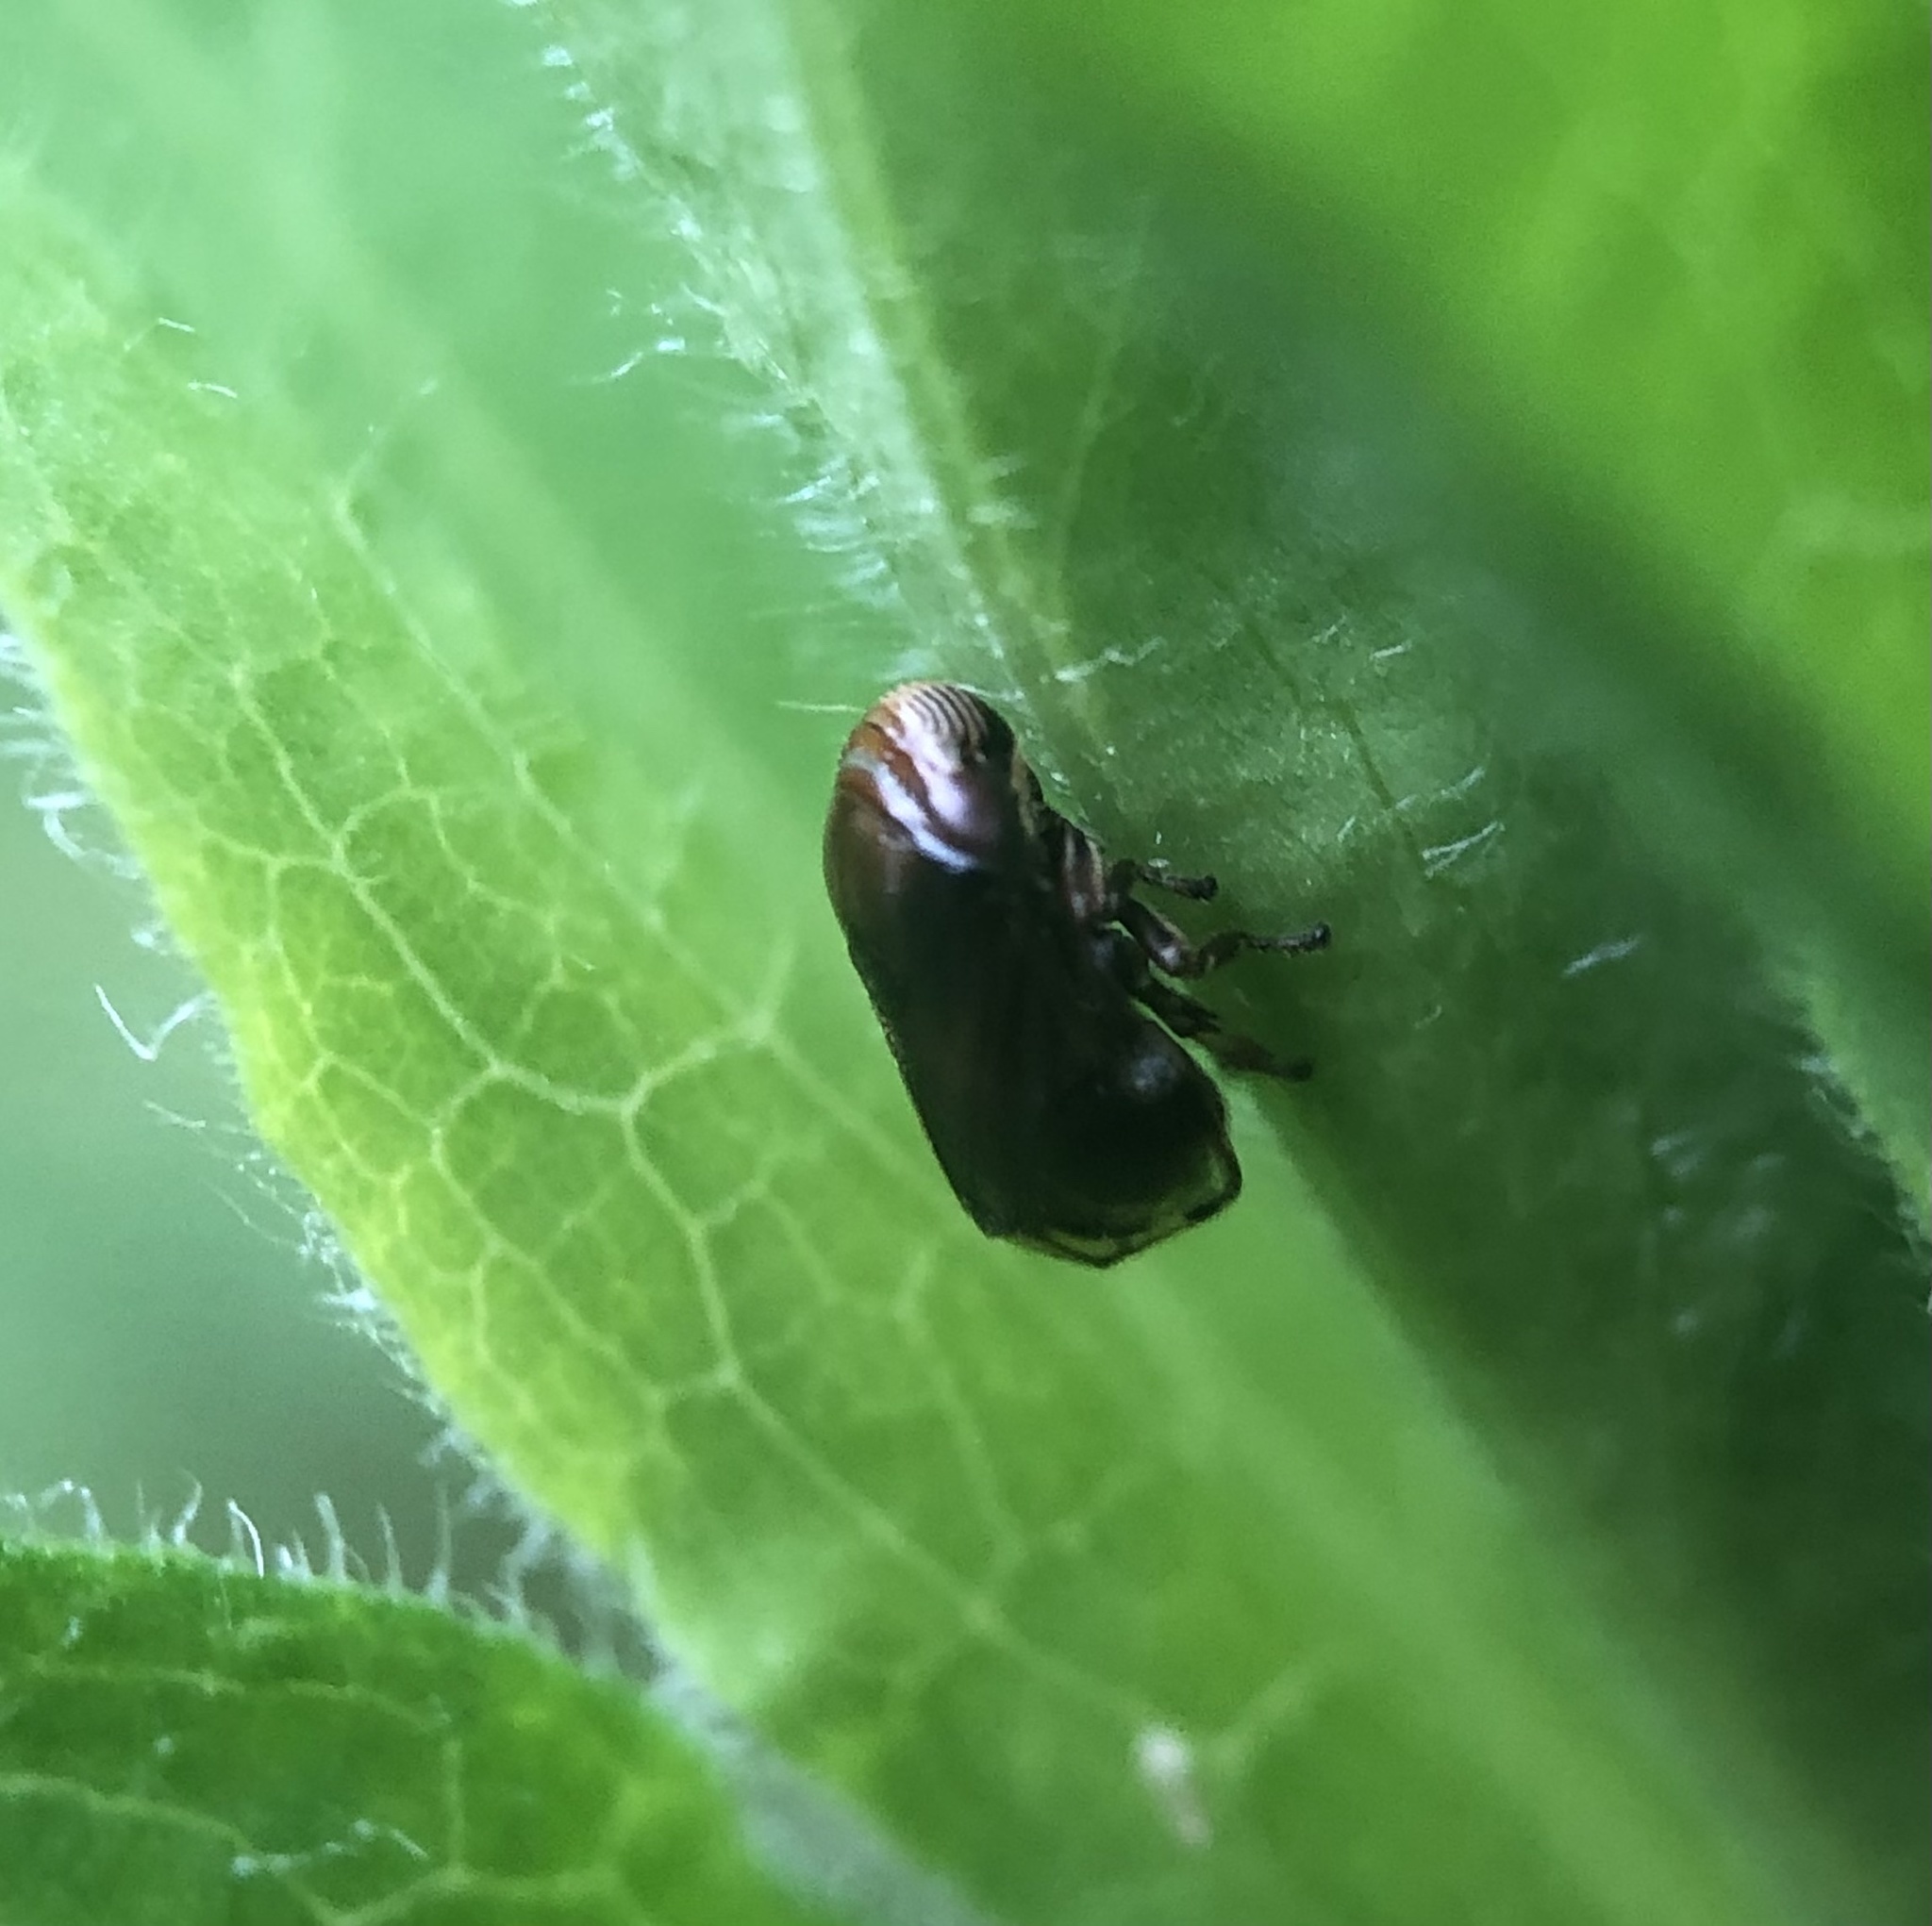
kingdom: Animalia
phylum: Arthropoda
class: Insecta
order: Hemiptera
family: Clastopteridae
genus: Clastoptera
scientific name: Clastoptera xanthocephala
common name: Sunflower spittlebug
